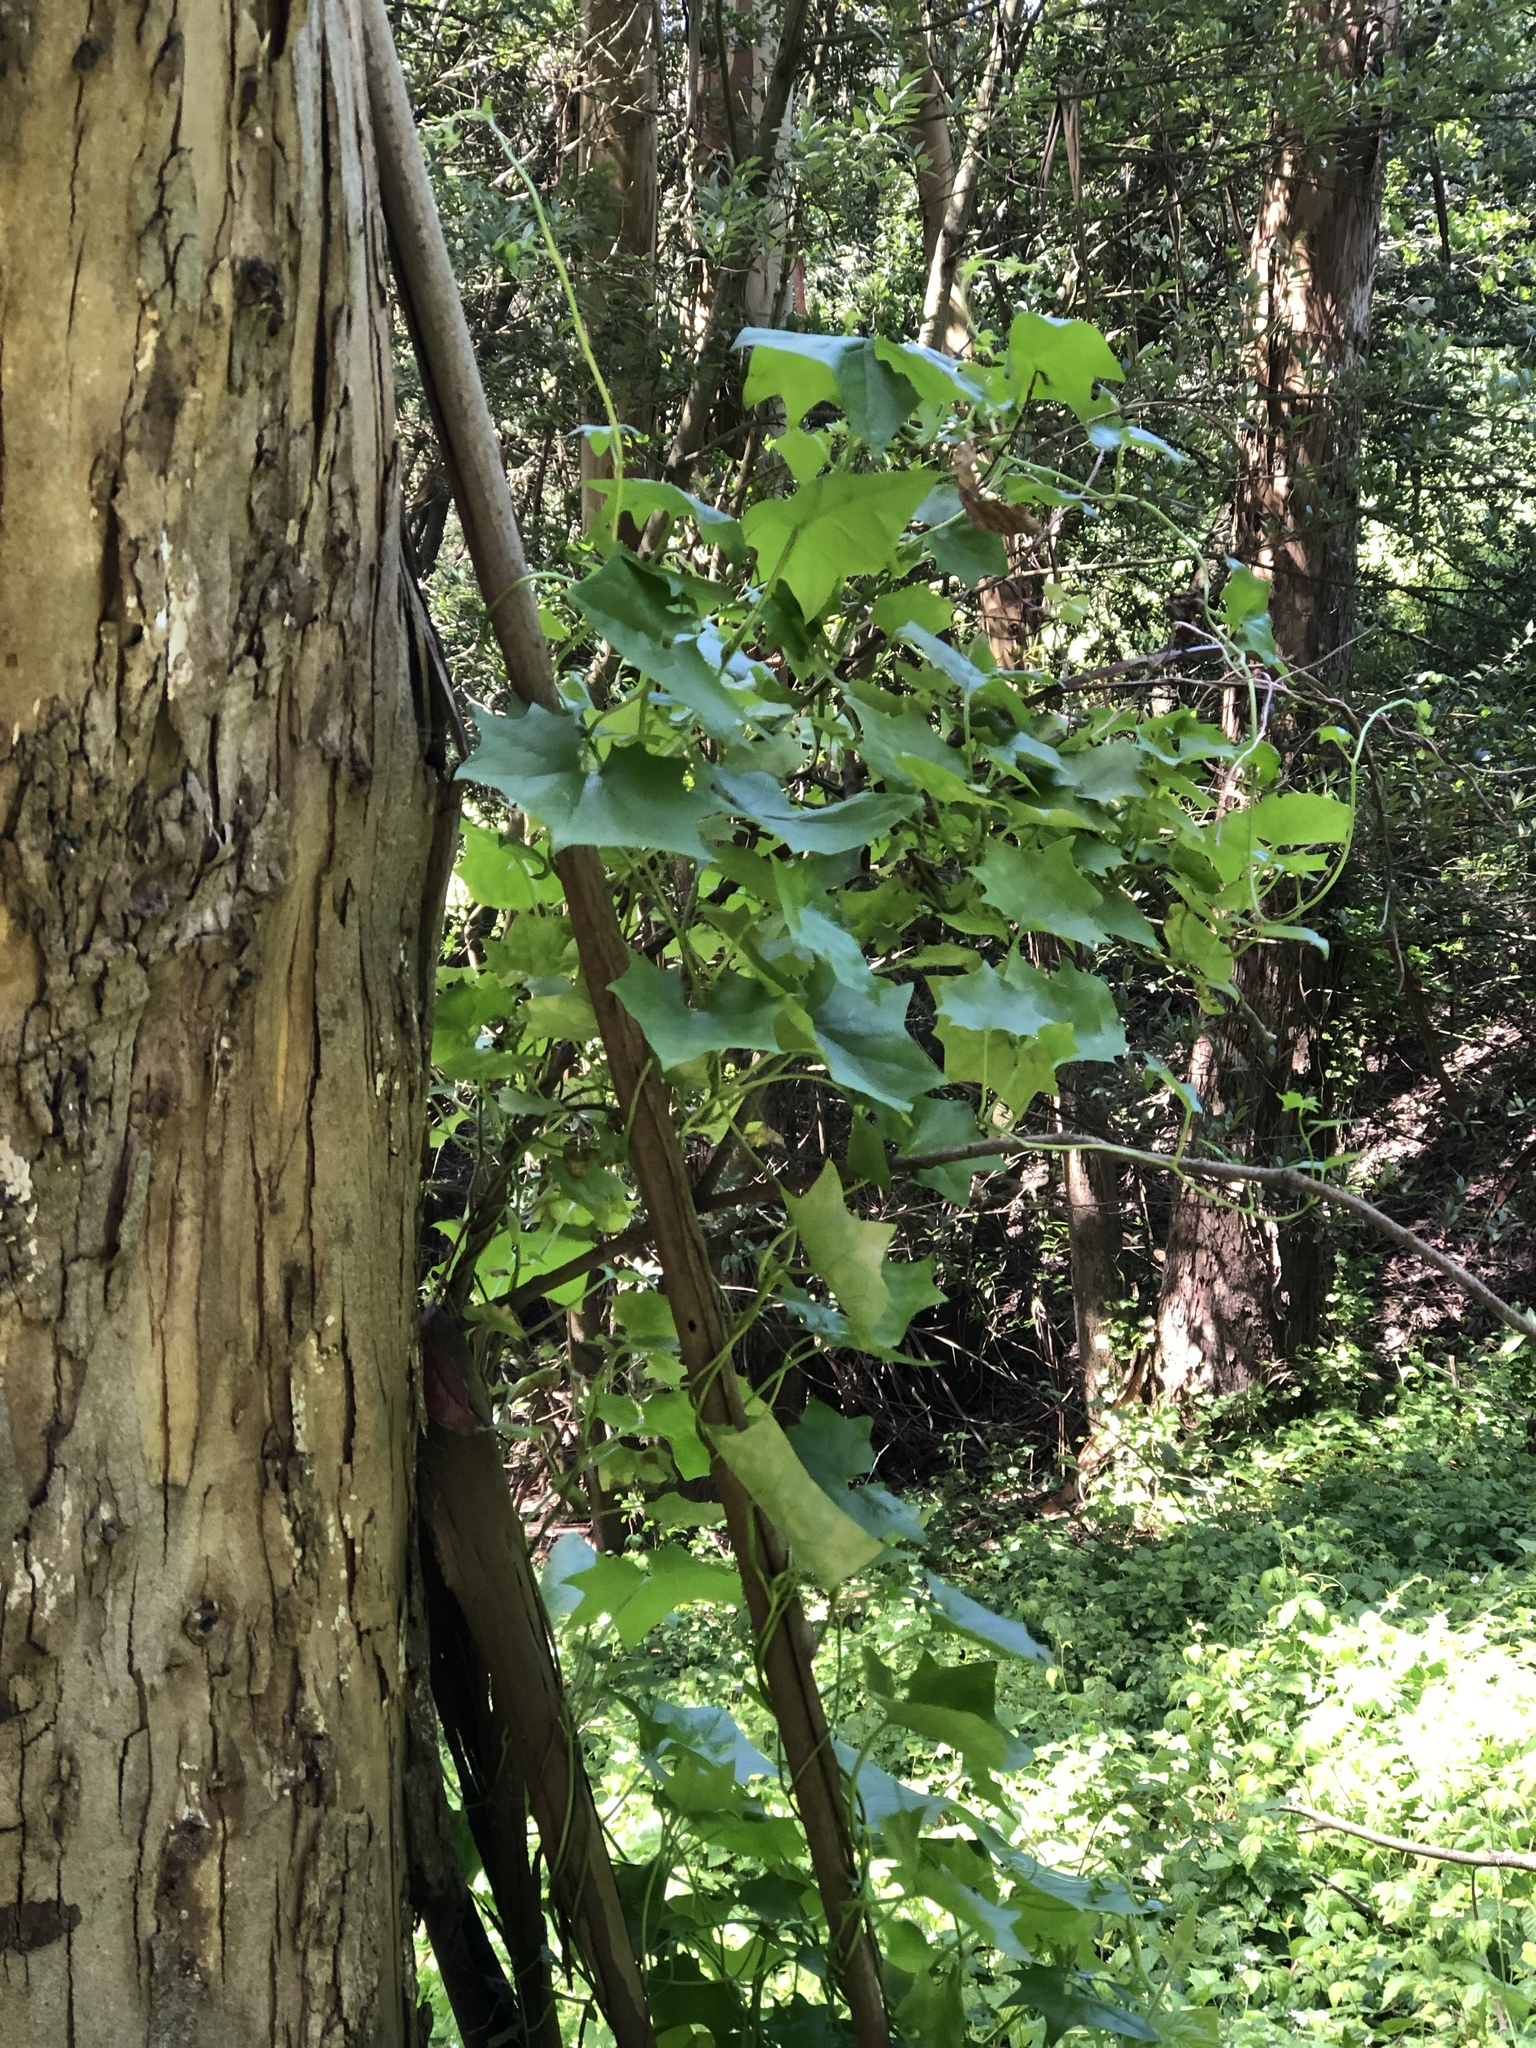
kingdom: Plantae
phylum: Tracheophyta
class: Magnoliopsida
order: Asterales
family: Asteraceae
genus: Delairea
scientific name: Delairea odorata
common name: Cape-ivy
